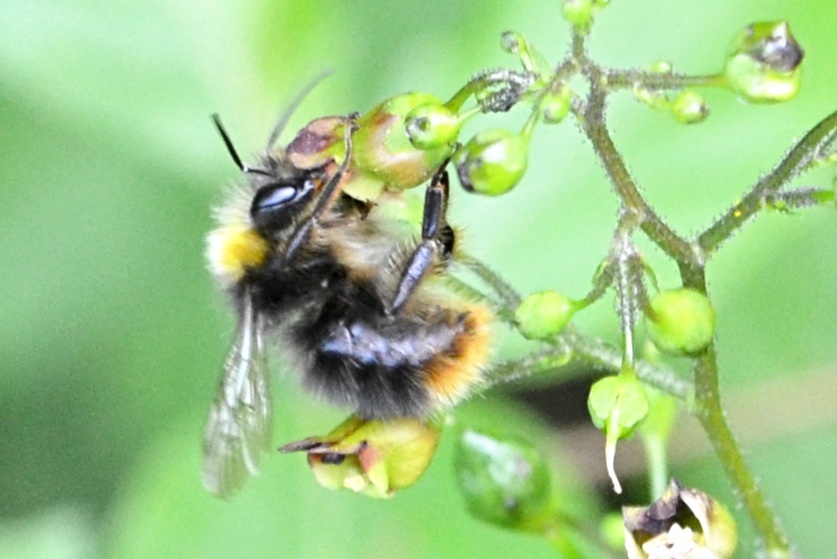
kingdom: Animalia
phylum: Arthropoda
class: Insecta
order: Hymenoptera
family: Apidae
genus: Bombus
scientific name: Bombus pratorum
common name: Early humble-bee
